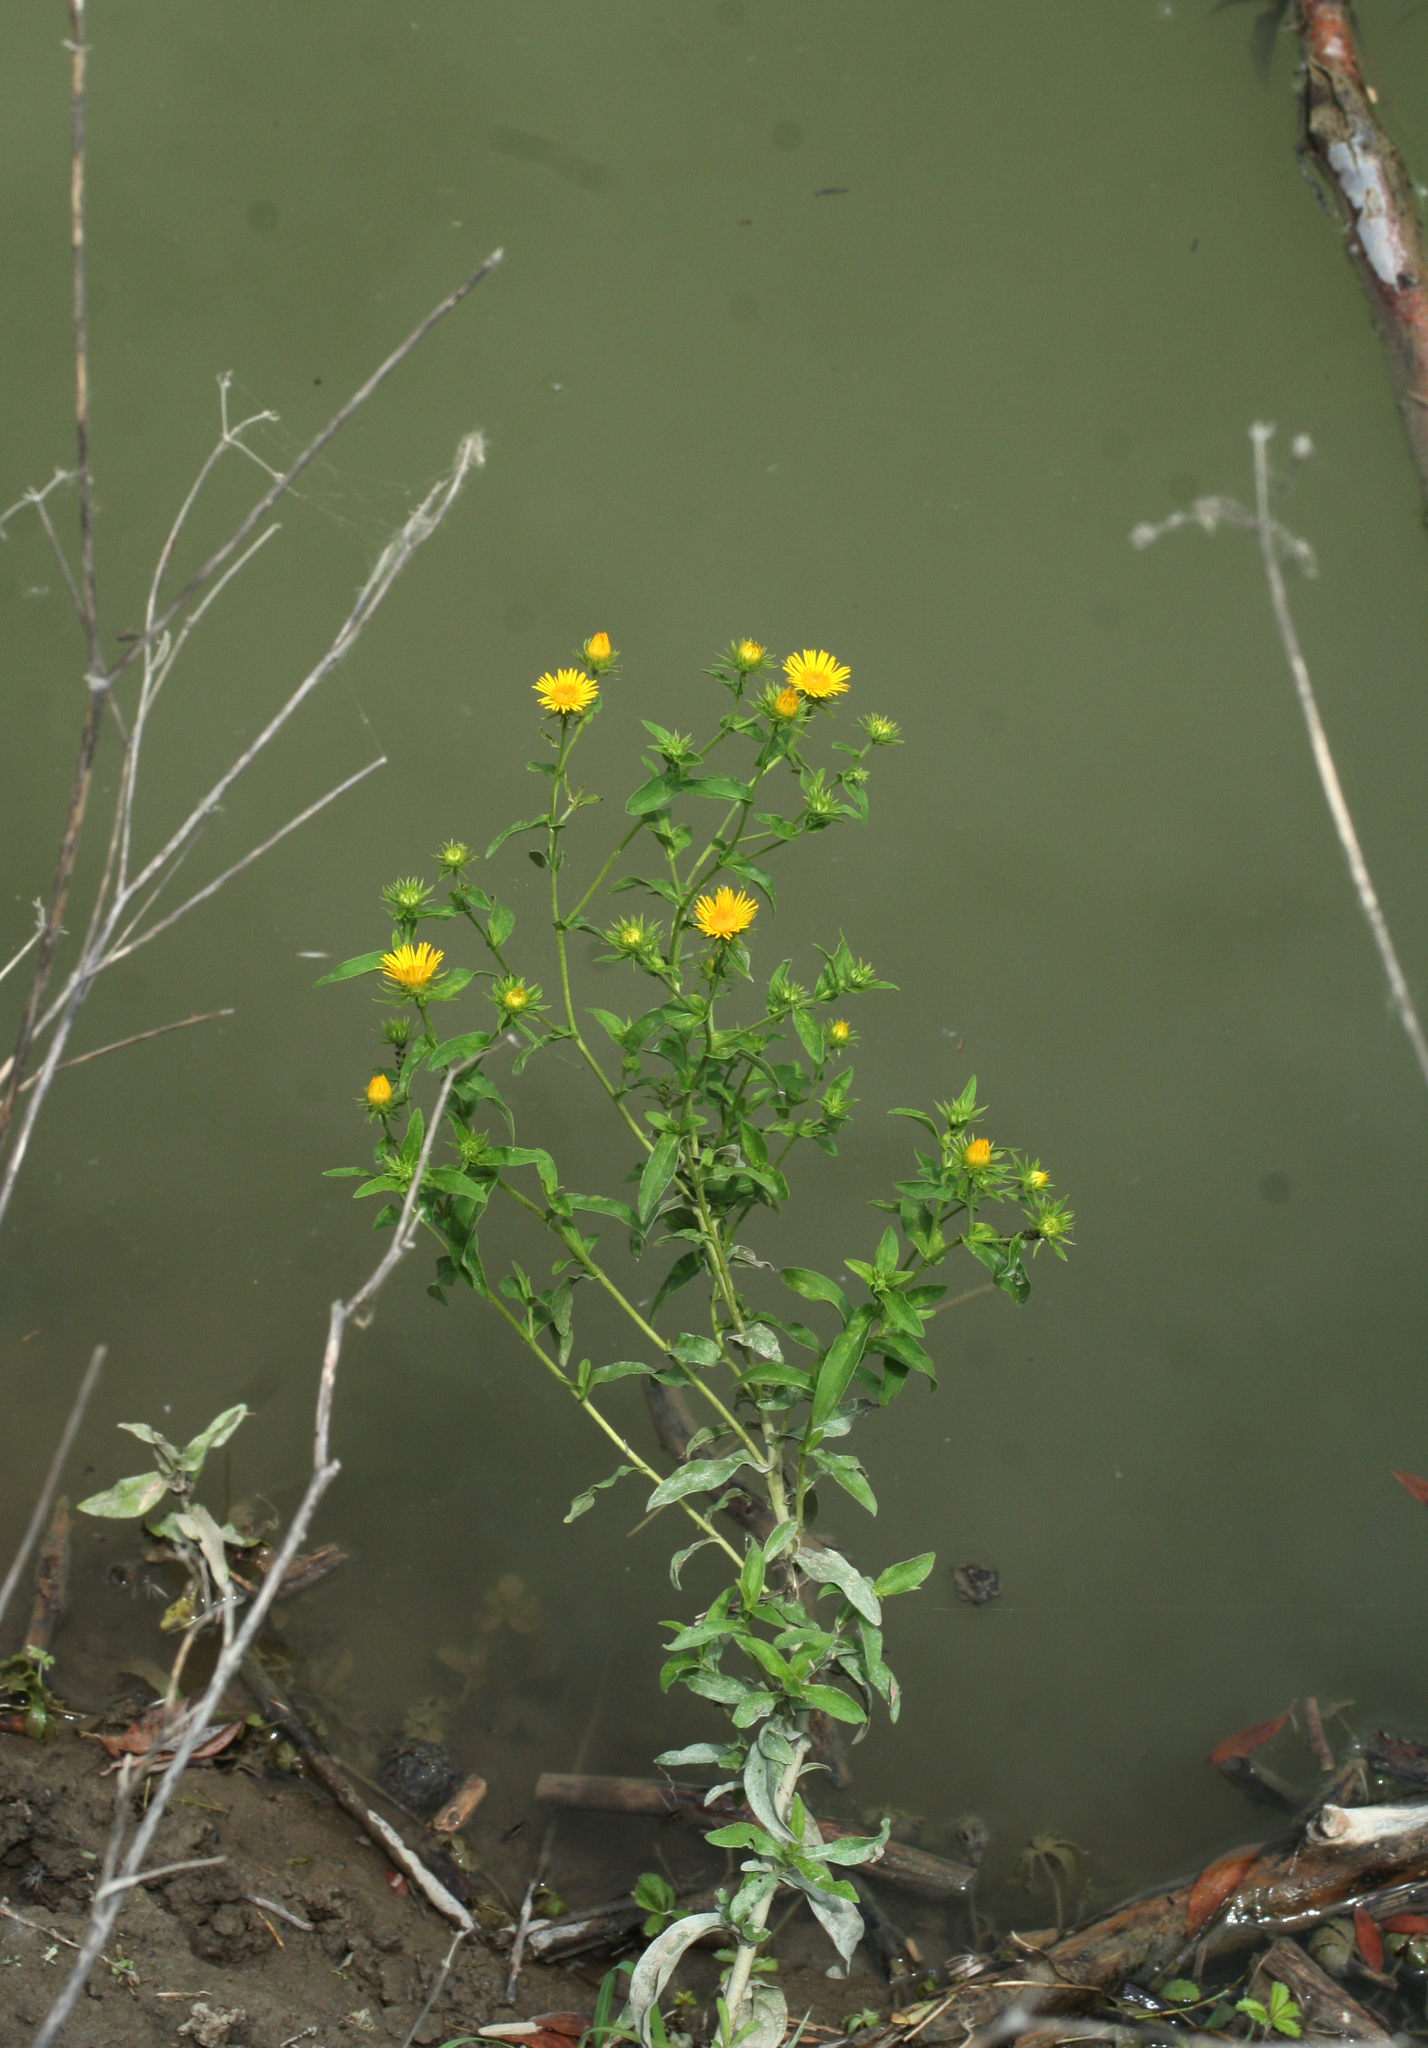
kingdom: Plantae
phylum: Tracheophyta
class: Magnoliopsida
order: Asterales
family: Asteraceae
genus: Pentanema
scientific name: Pentanema britannicum
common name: British elecampane
